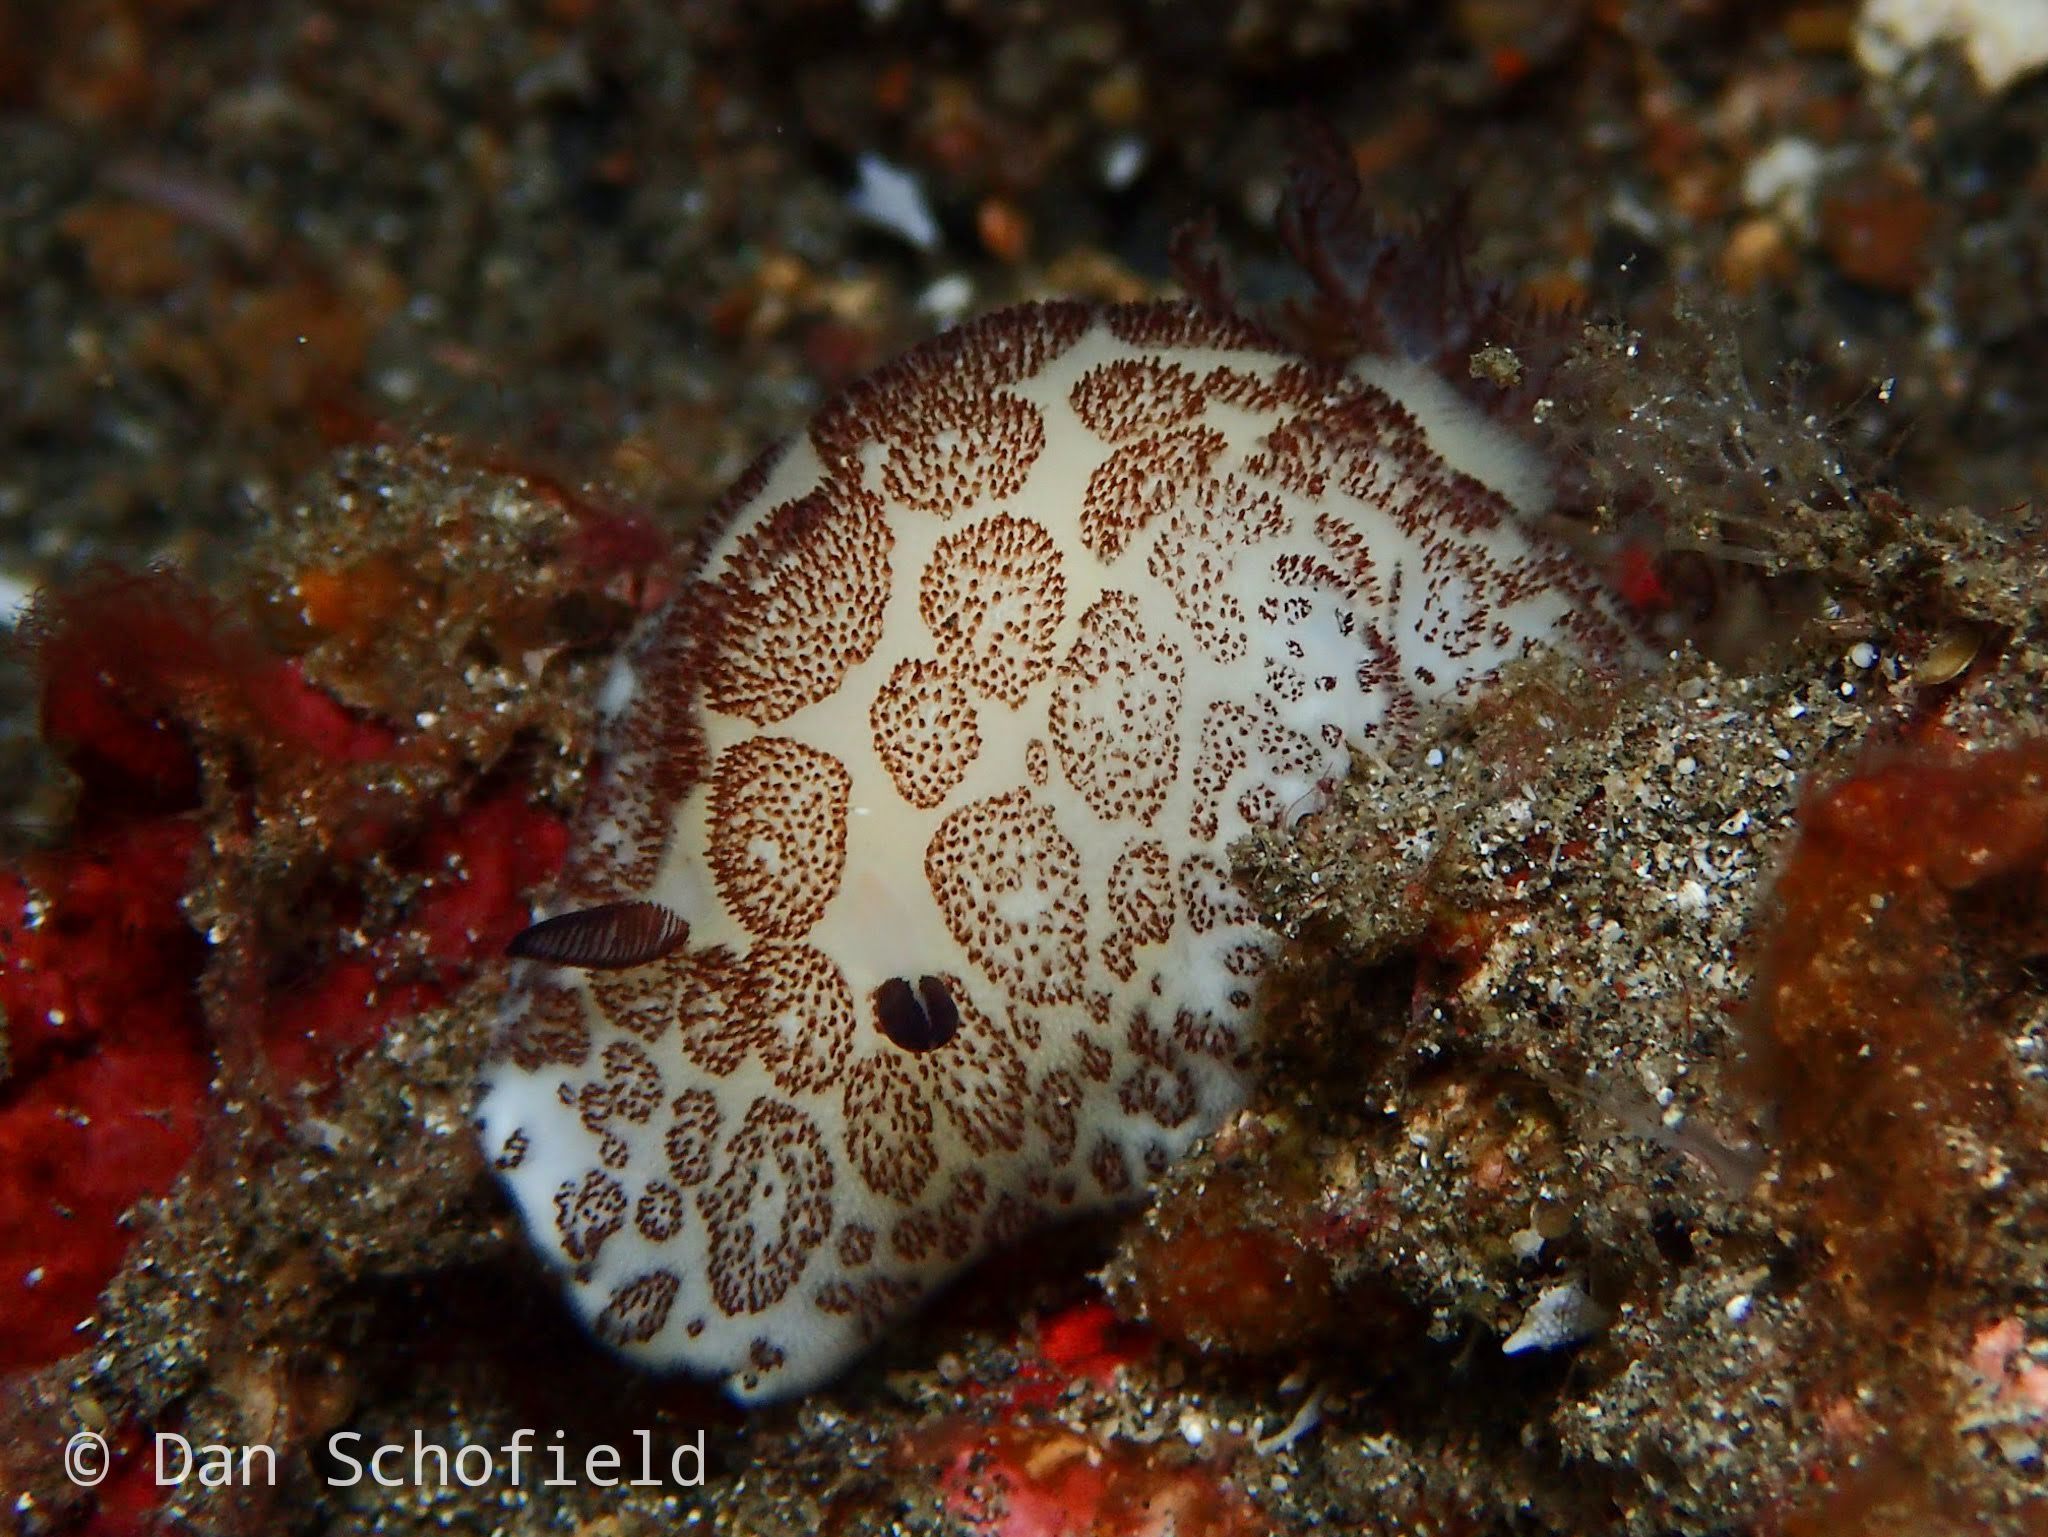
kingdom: Animalia
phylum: Mollusca
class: Gastropoda
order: Nudibranchia
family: Discodorididae
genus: Jorunna
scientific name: Jorunna funebris
